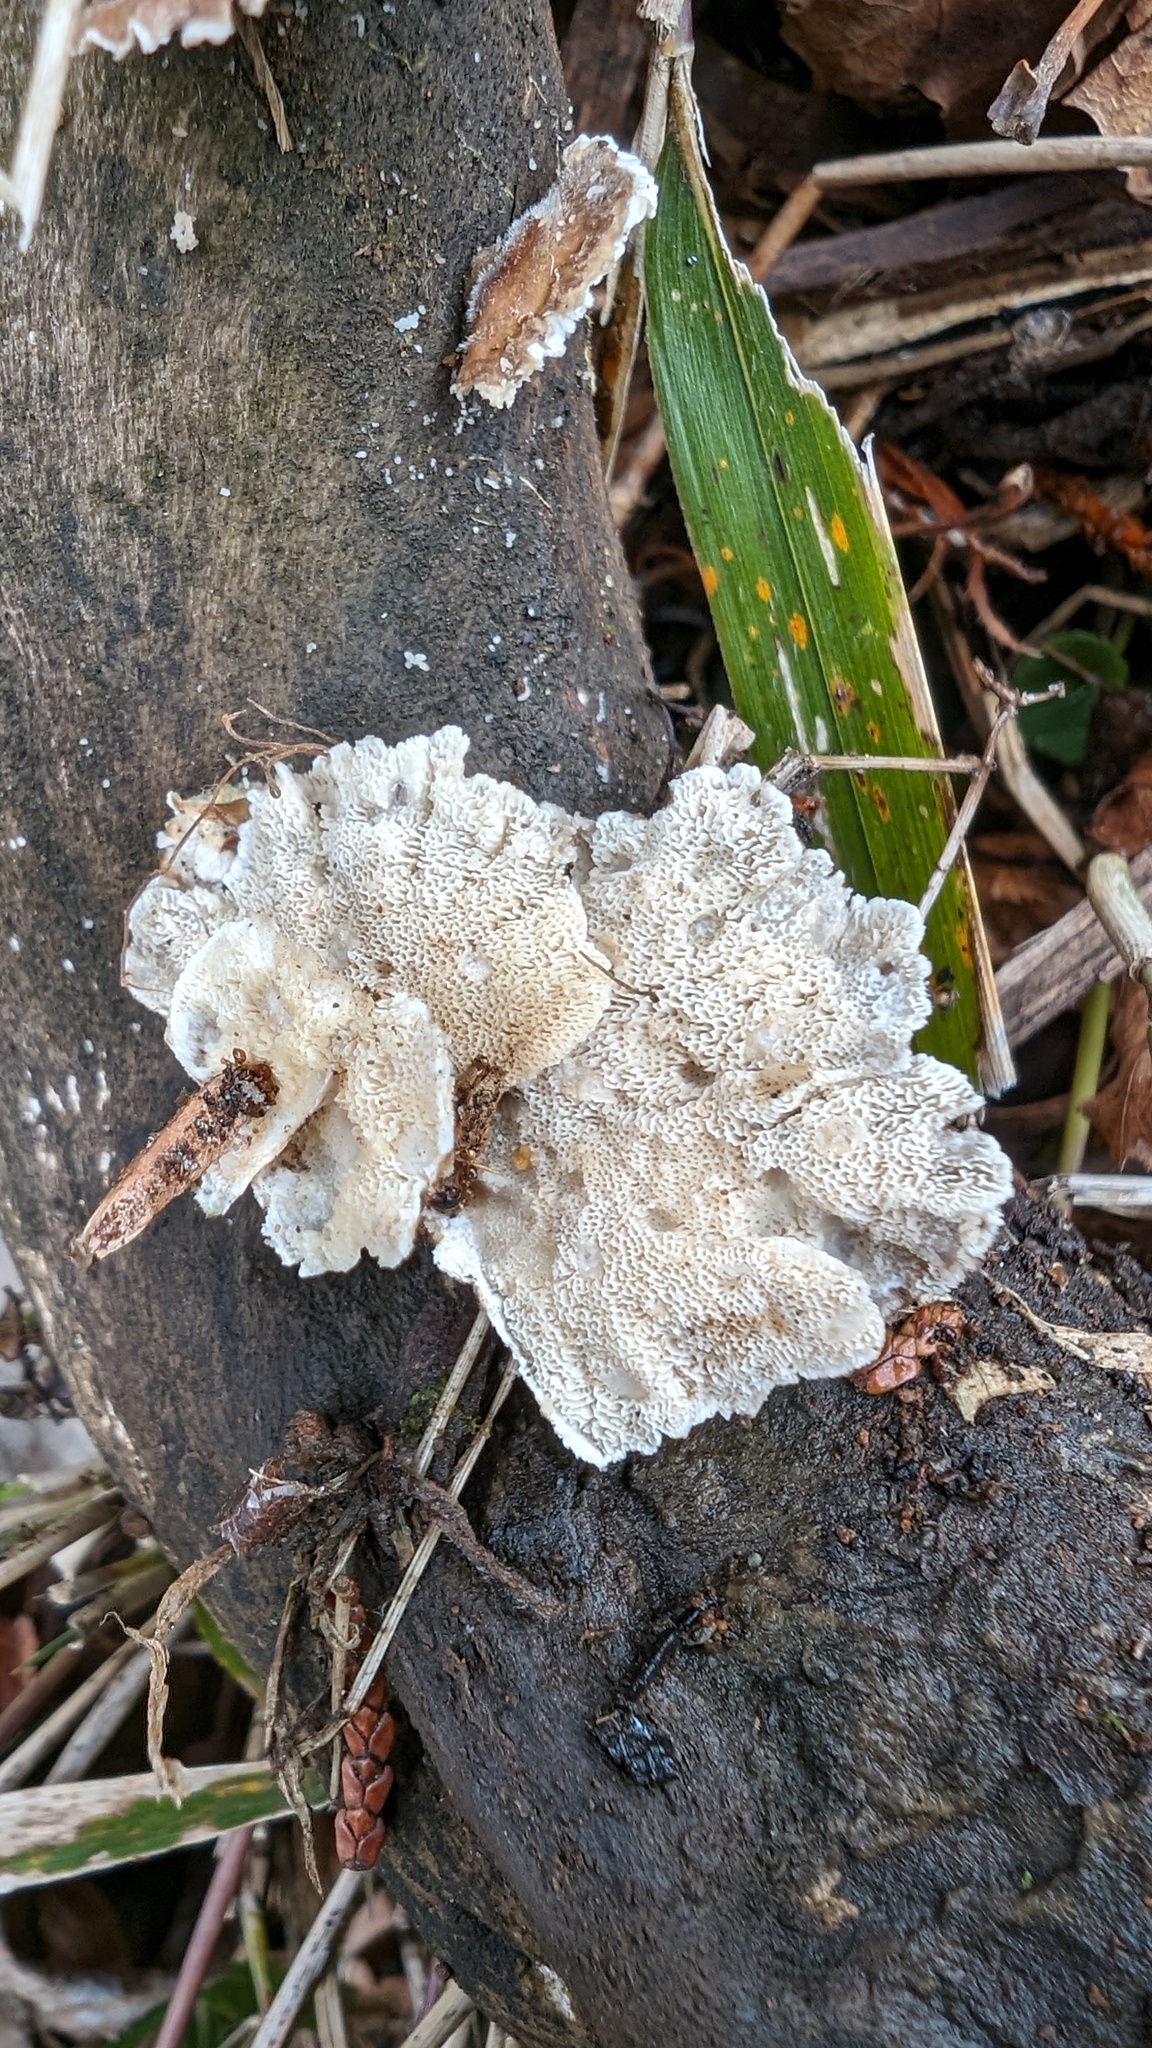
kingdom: Fungi
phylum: Basidiomycota
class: Agaricomycetes
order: Polyporales
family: Polyporaceae
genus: Trametes
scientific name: Trametes versicolor
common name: Turkeytail
